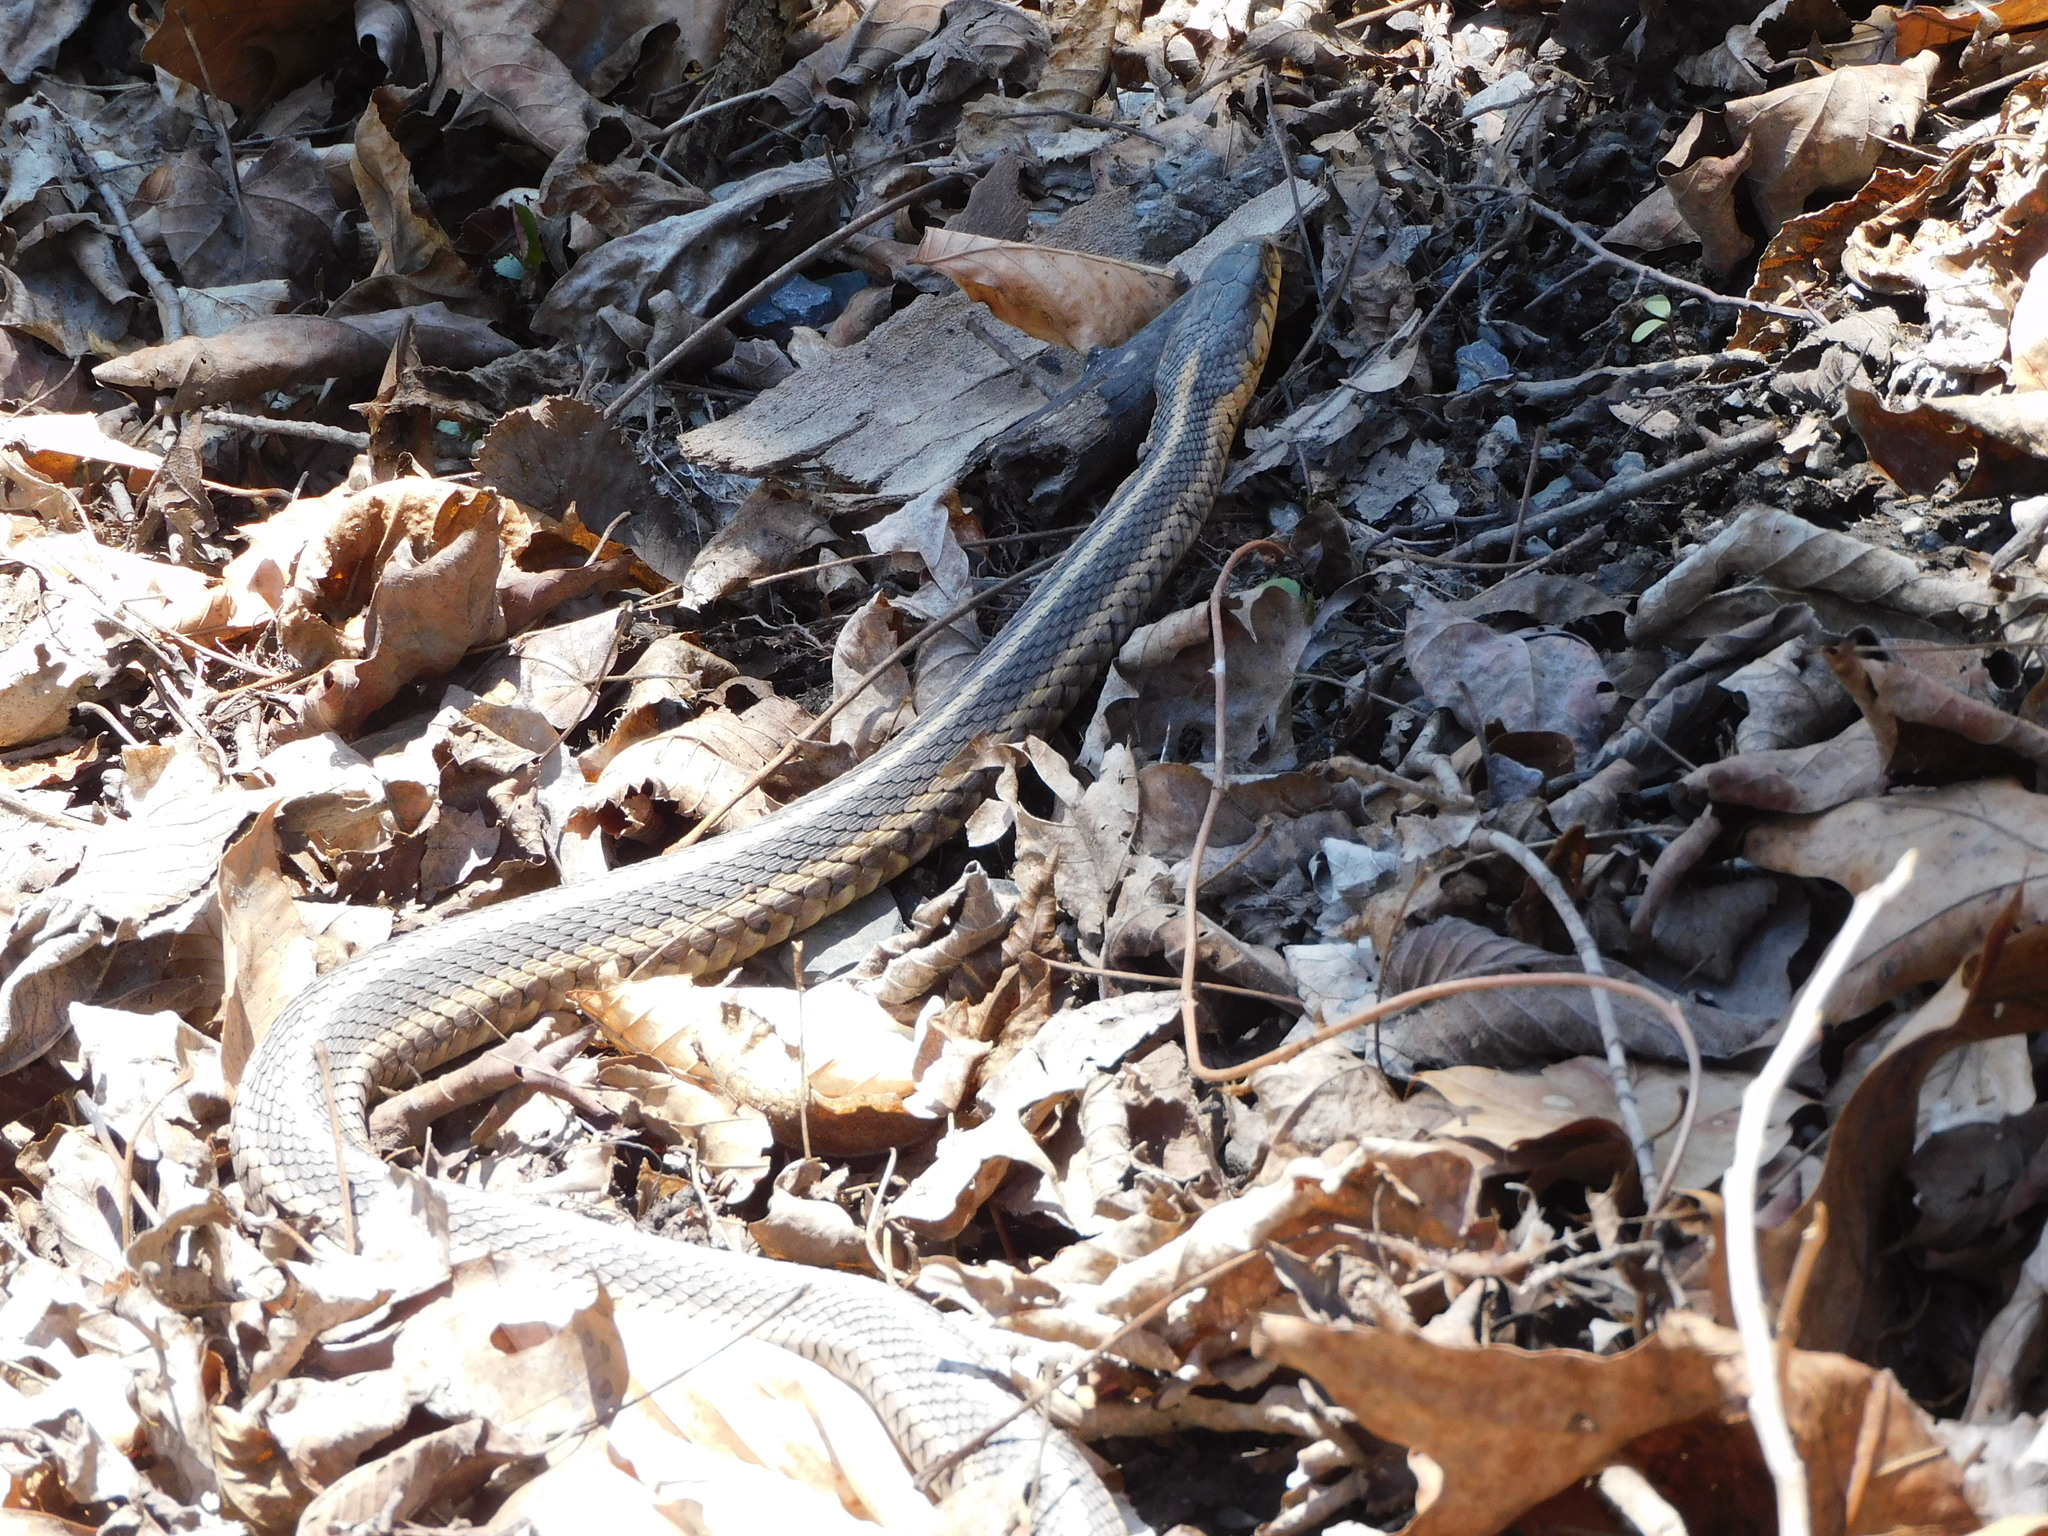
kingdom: Animalia
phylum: Chordata
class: Squamata
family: Colubridae
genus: Thamnophis
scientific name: Thamnophis sirtalis
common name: Common garter snake
